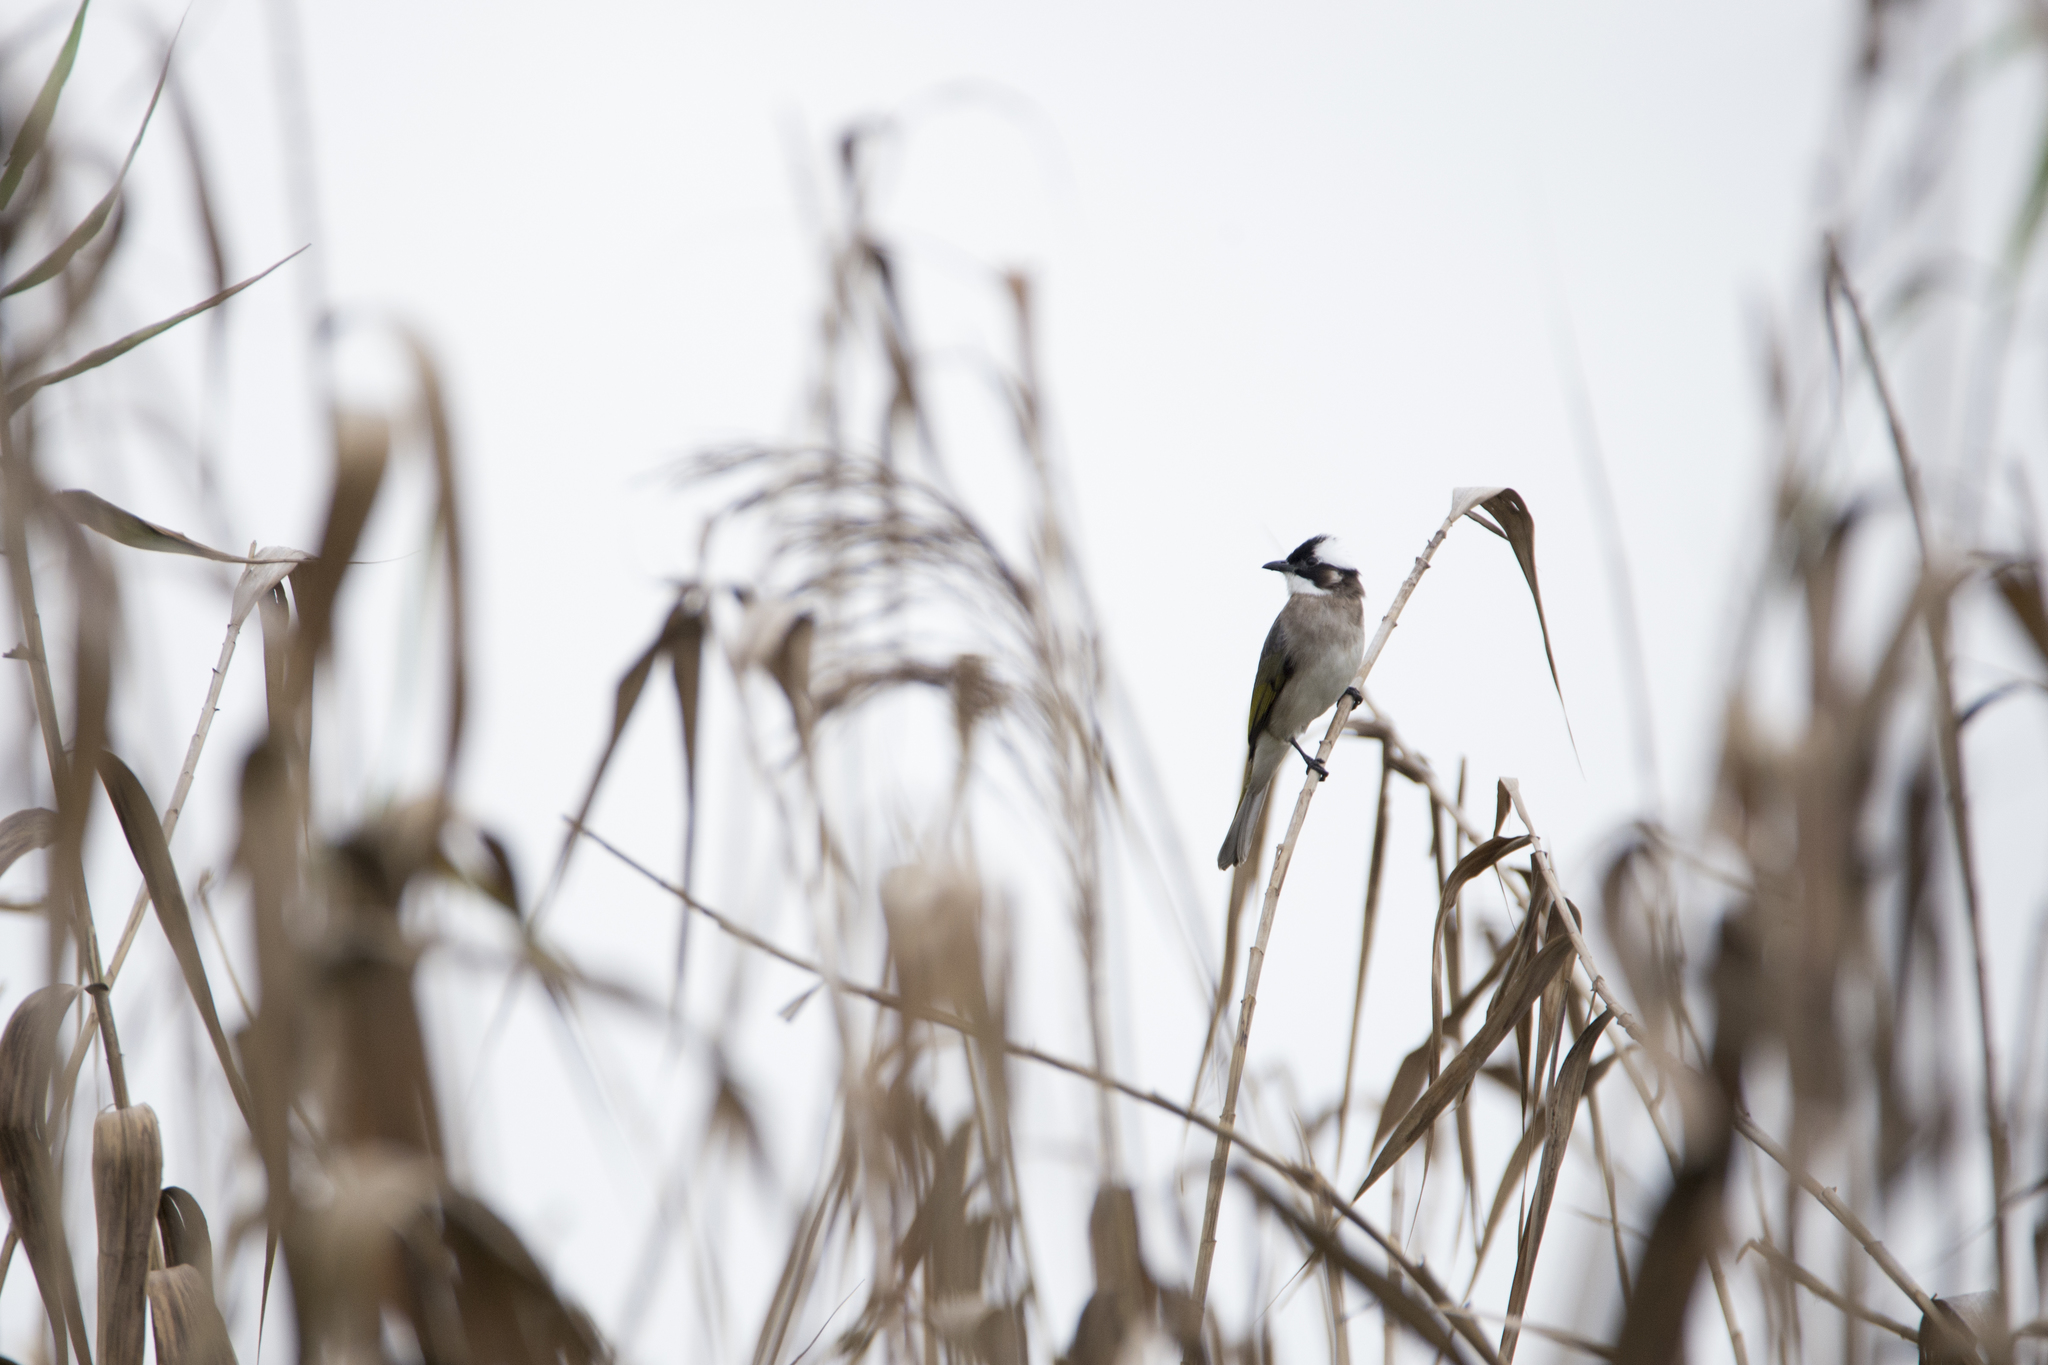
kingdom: Animalia
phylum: Chordata
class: Aves
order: Passeriformes
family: Pycnonotidae
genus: Pycnonotus
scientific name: Pycnonotus sinensis
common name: Light-vented bulbul
